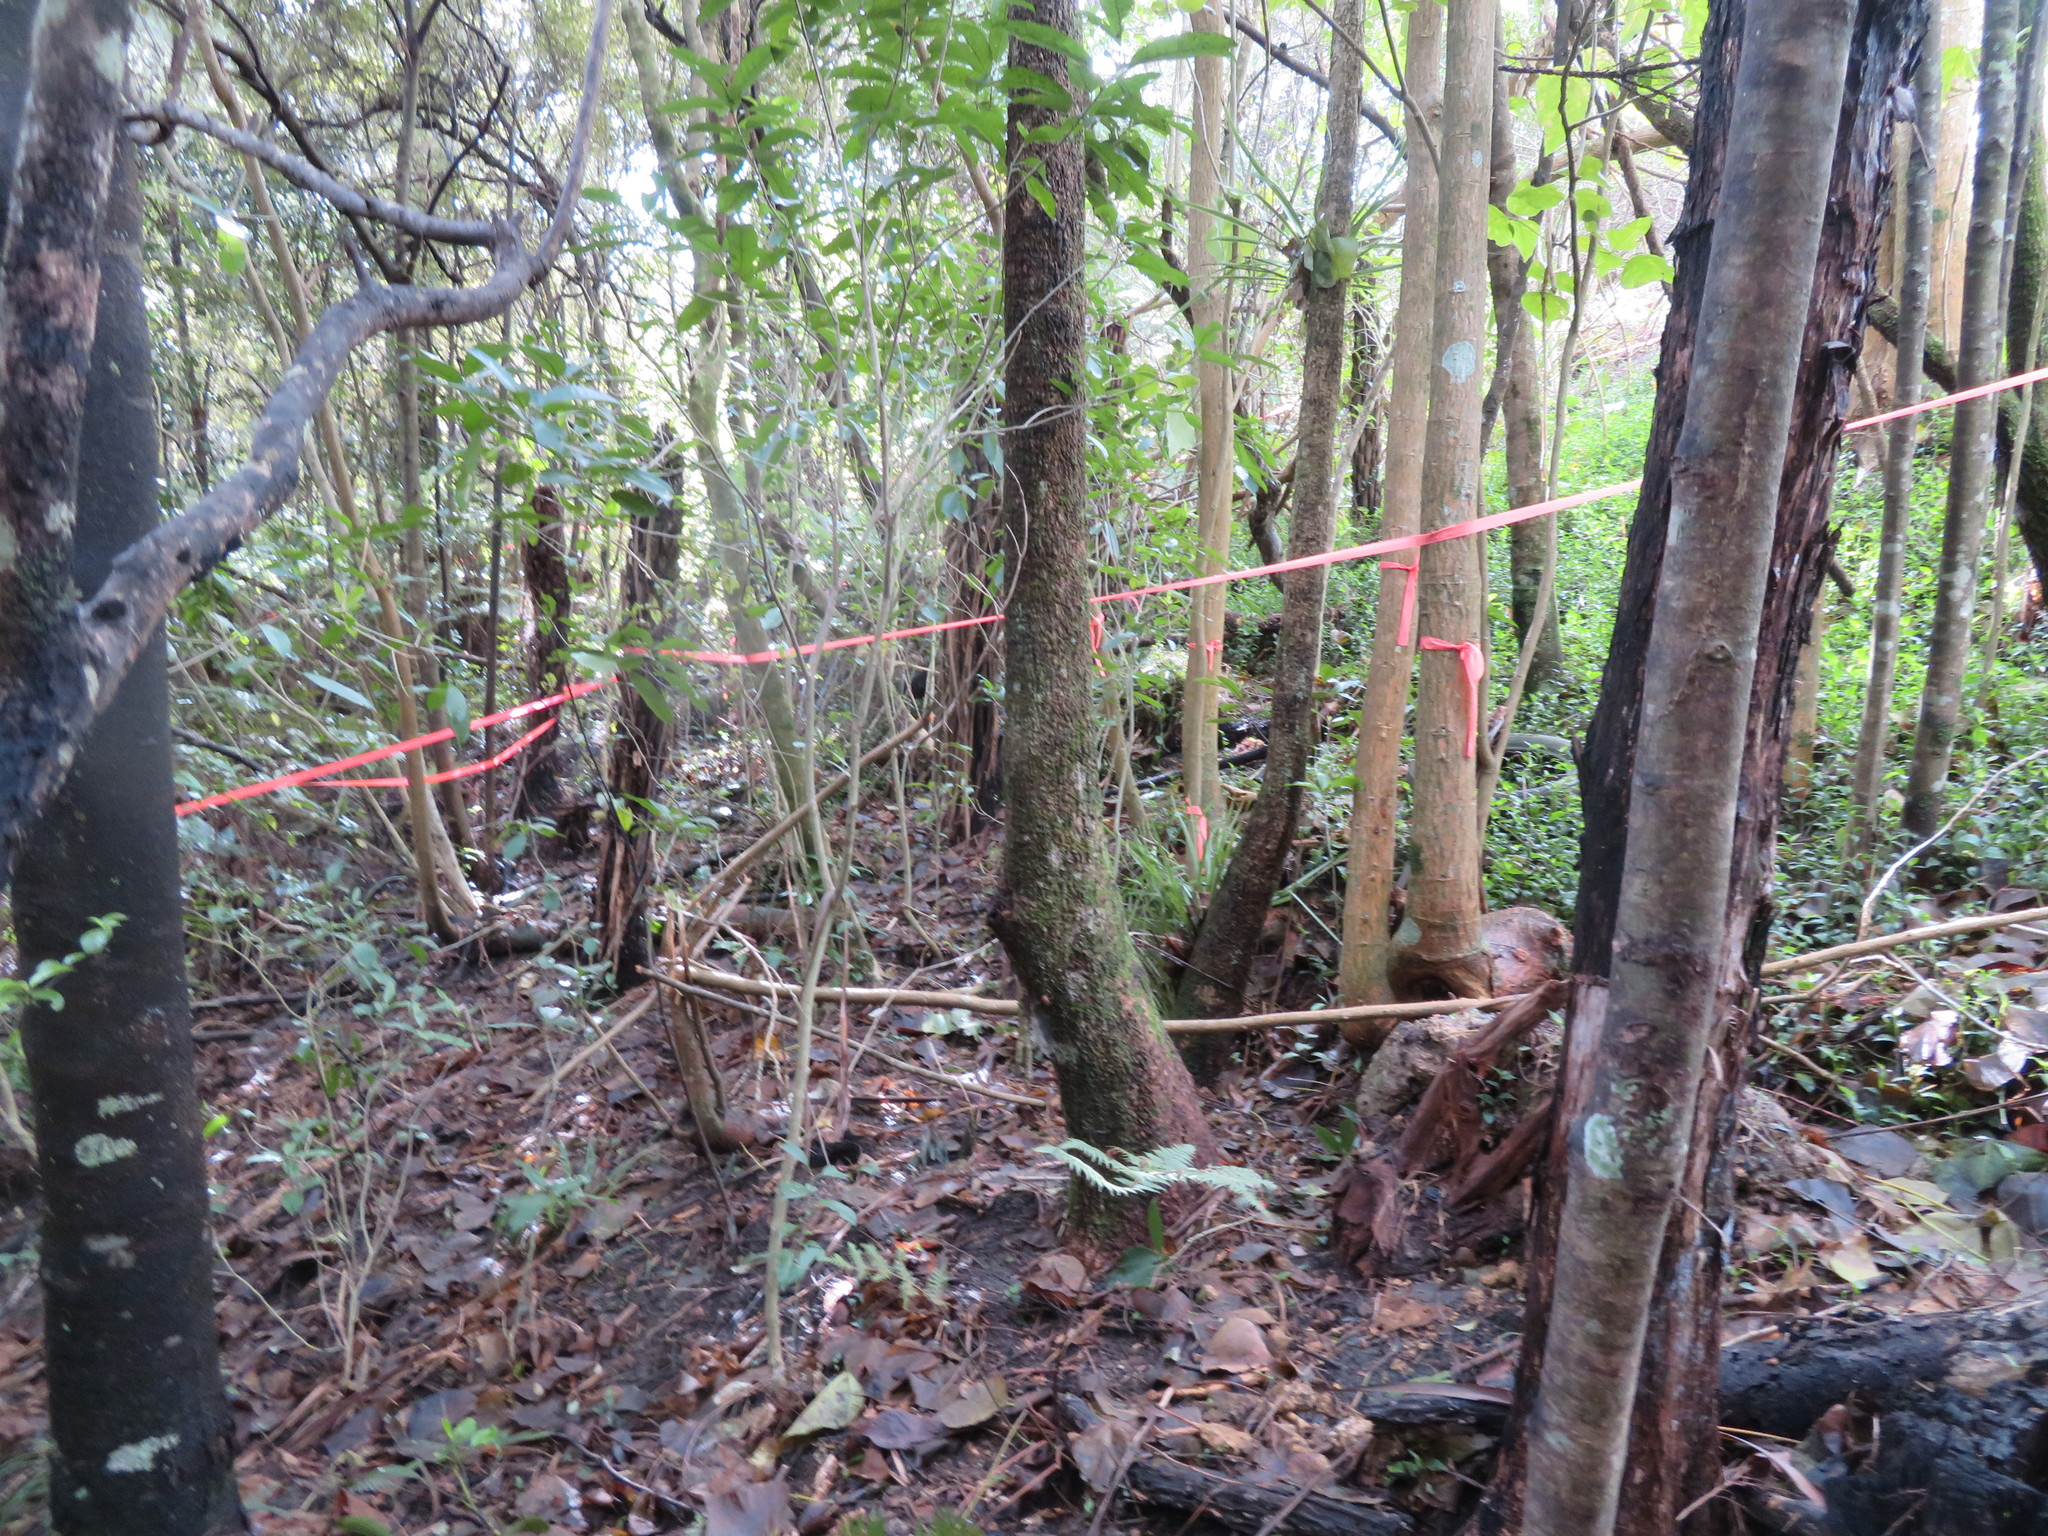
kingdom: Plantae
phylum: Tracheophyta
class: Liliopsida
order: Asparagales
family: Asparagaceae
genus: Cordyline
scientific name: Cordyline australis
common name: Cabbage-palm
